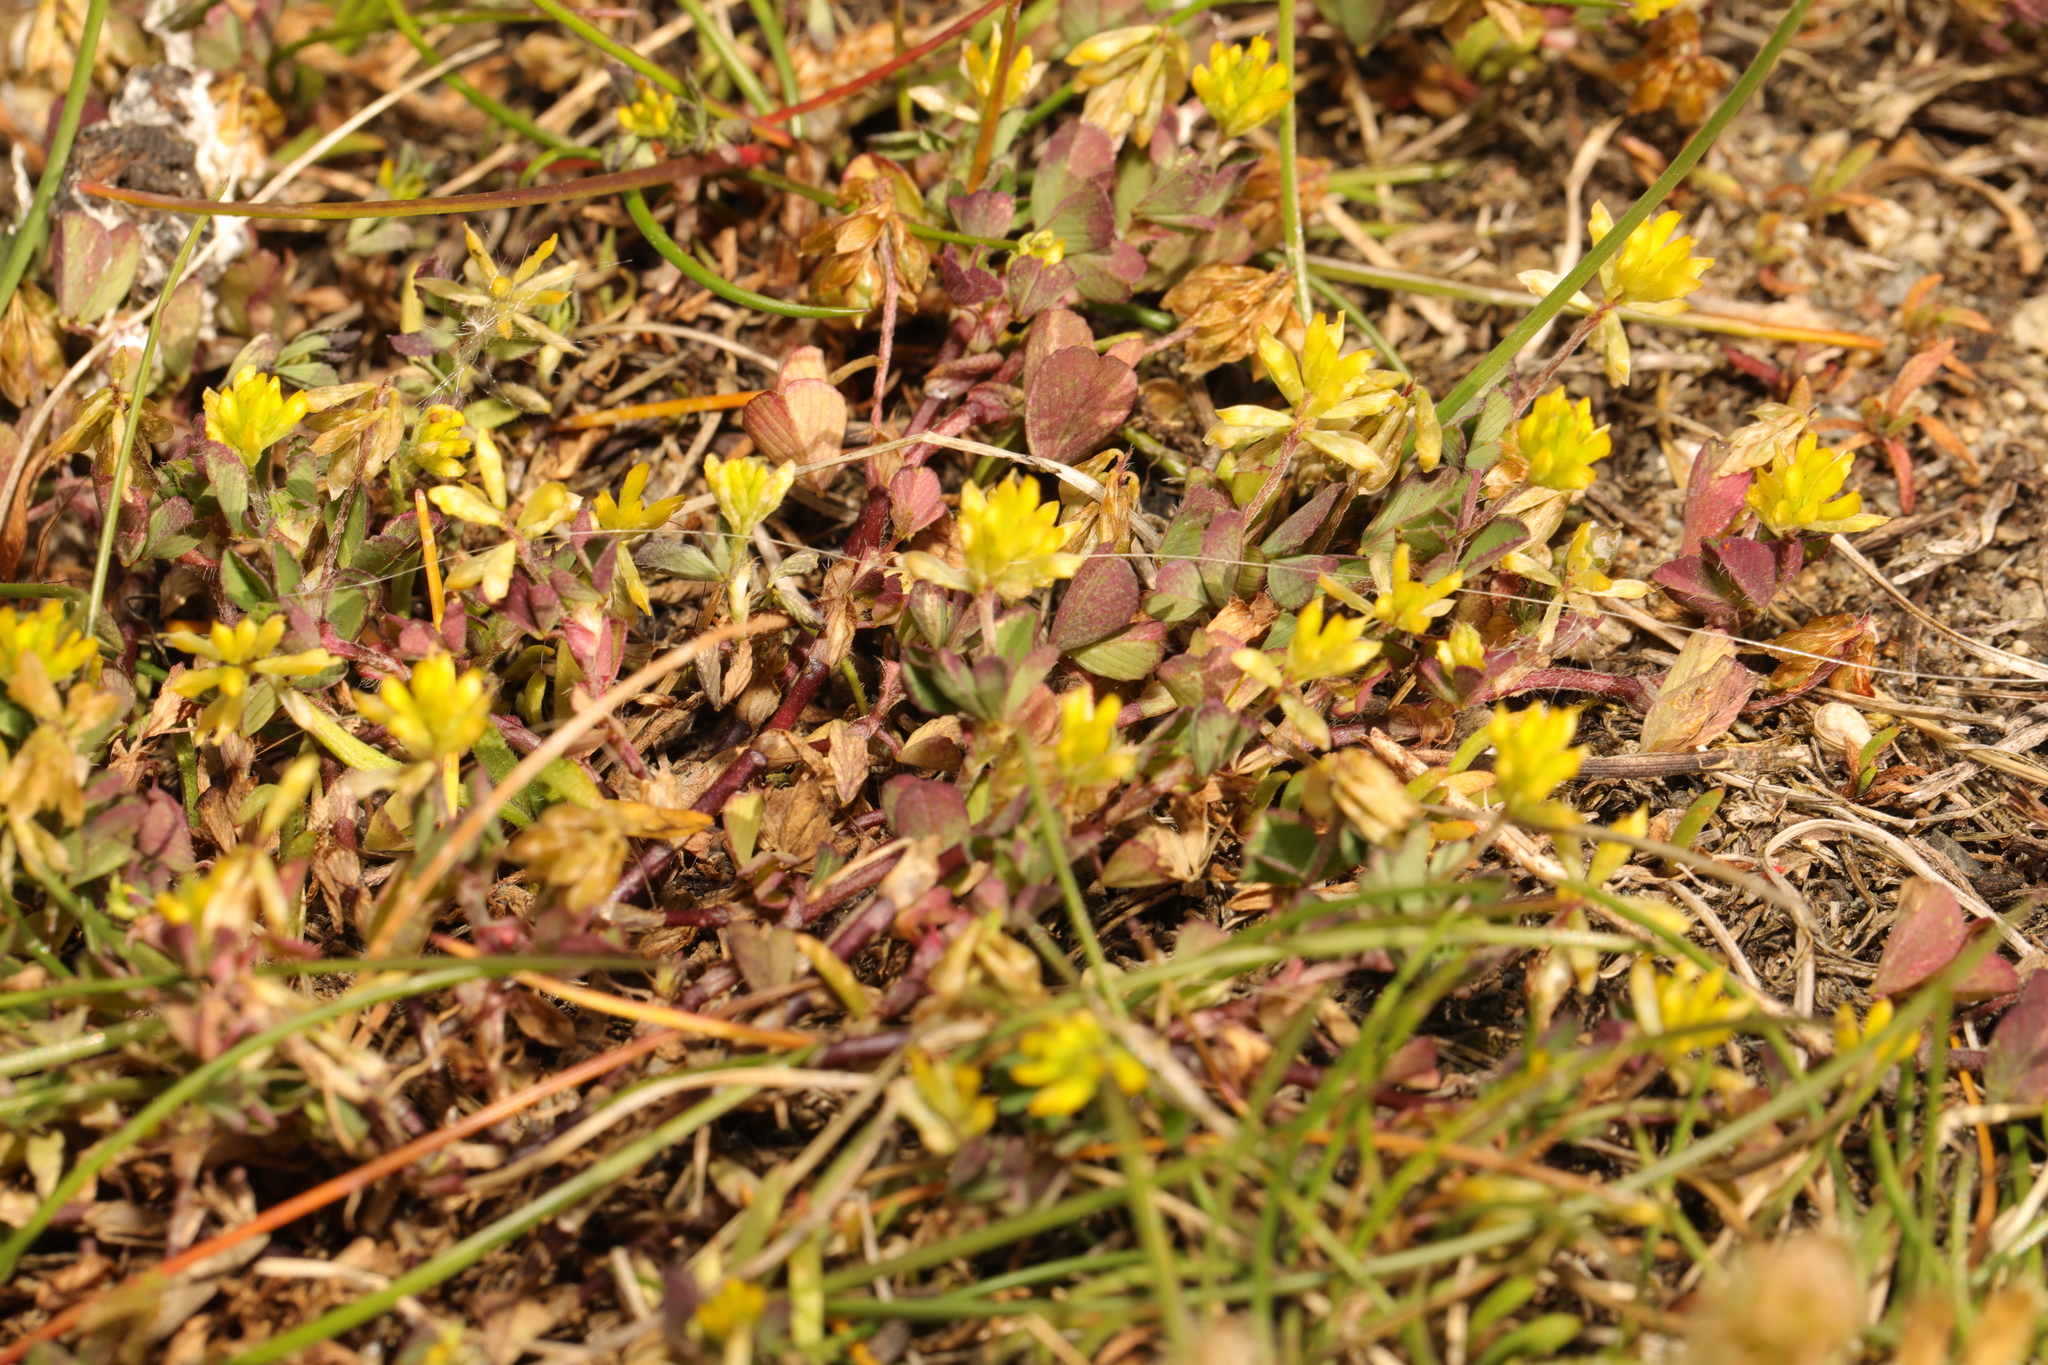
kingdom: Plantae
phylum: Tracheophyta
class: Magnoliopsida
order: Fabales
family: Fabaceae
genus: Trifolium
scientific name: Trifolium dubium
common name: Suckling clover
